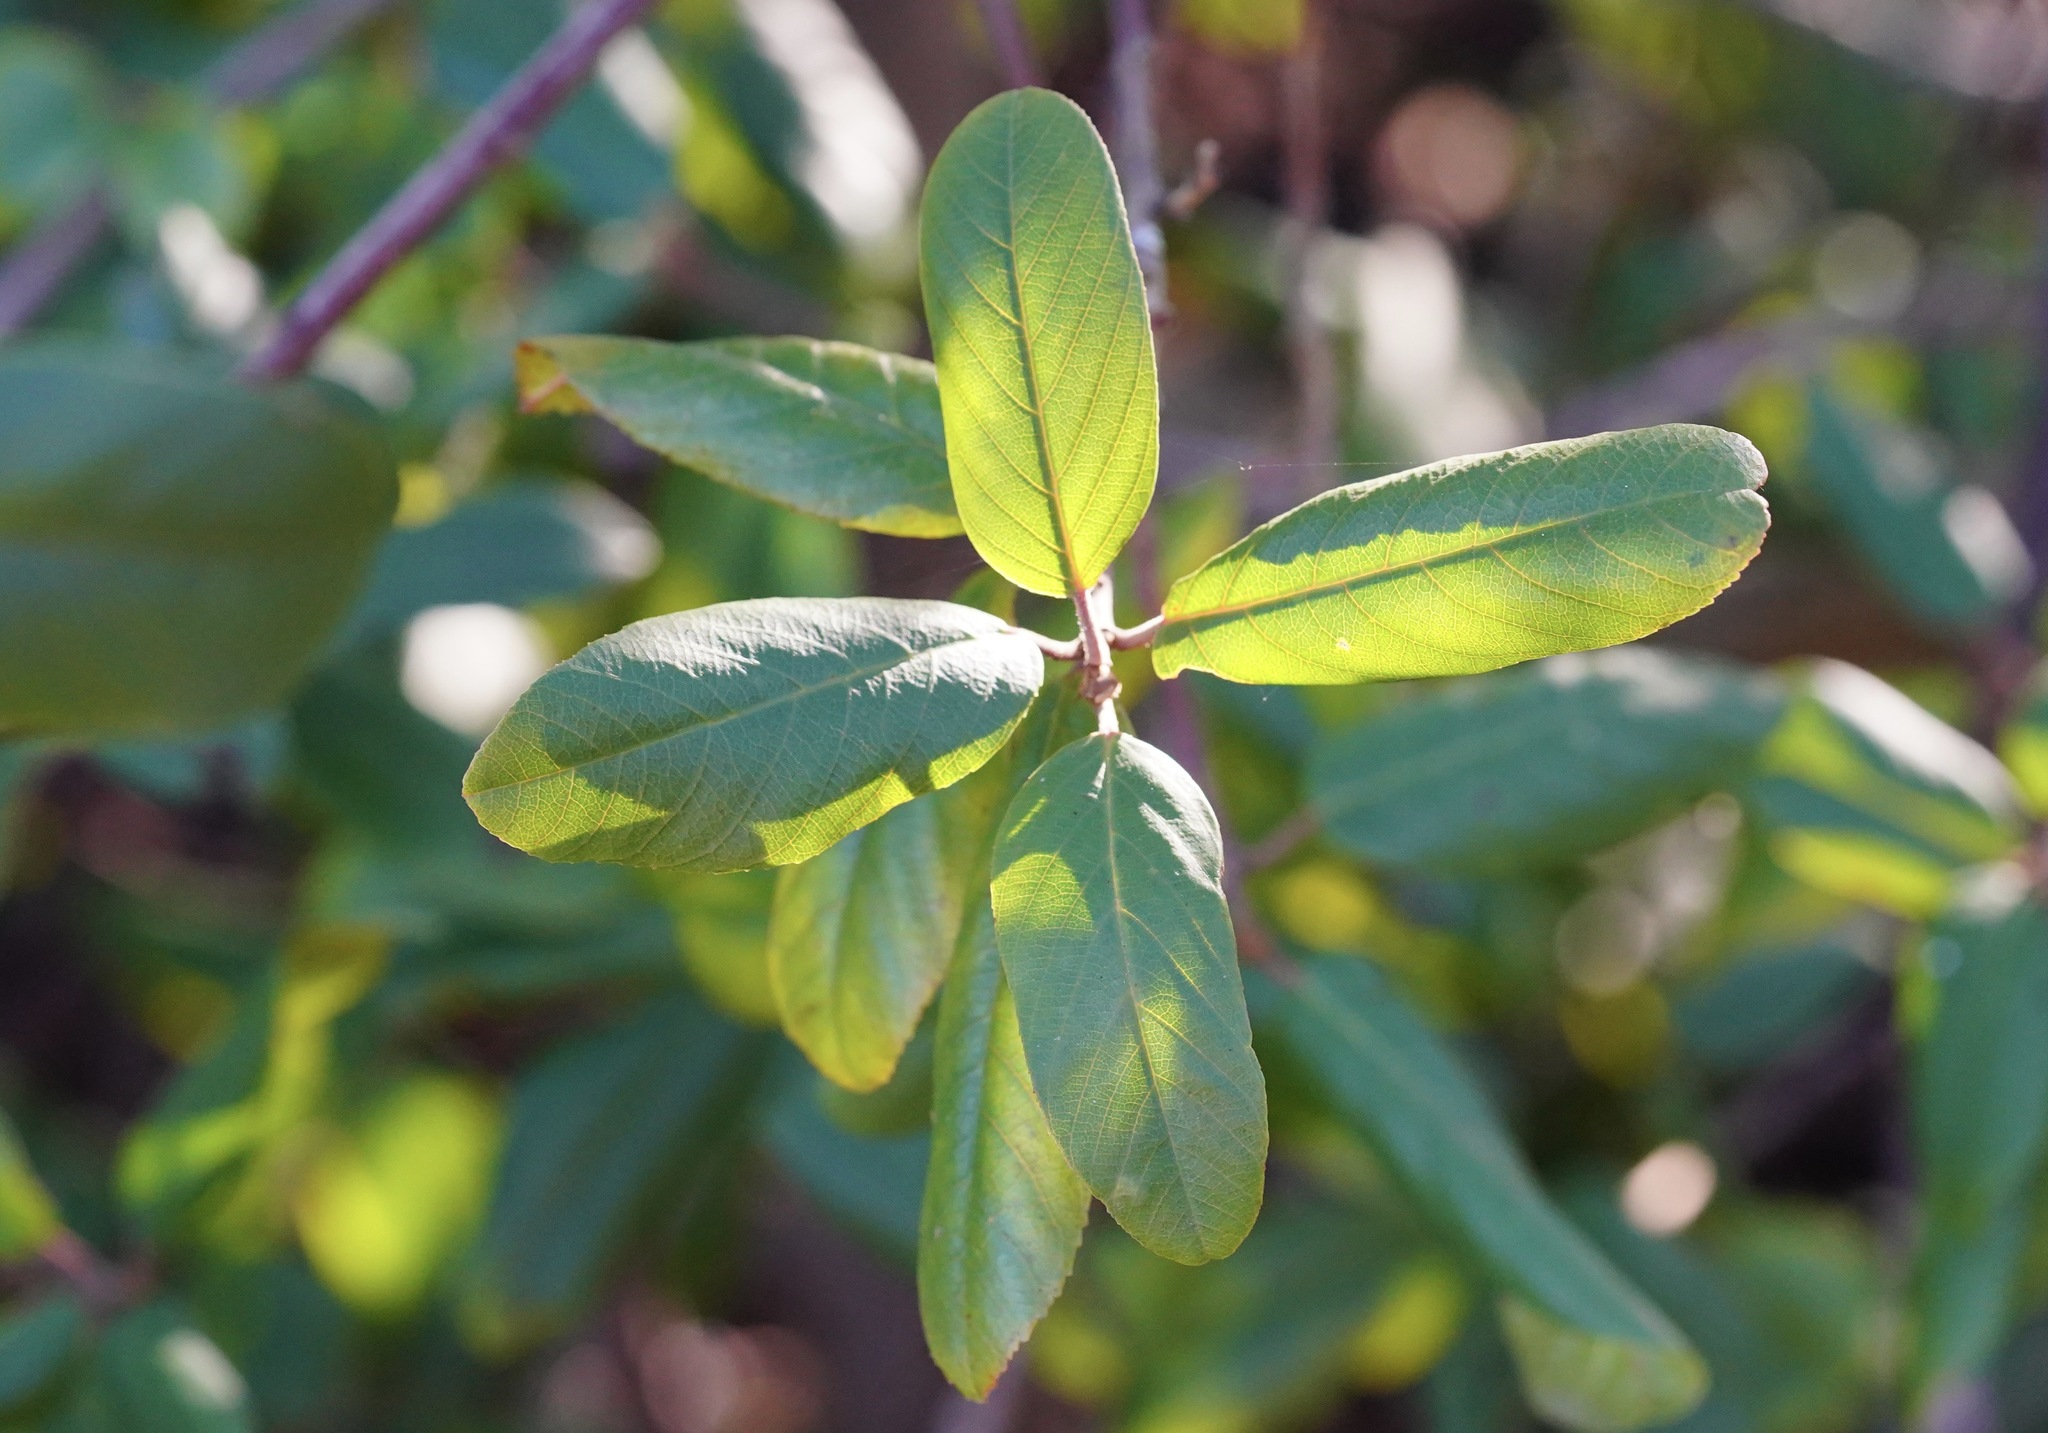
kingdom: Plantae
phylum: Tracheophyta
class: Magnoliopsida
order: Rosales
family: Rhamnaceae
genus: Frangula
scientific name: Frangula californica
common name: California buckthorn
